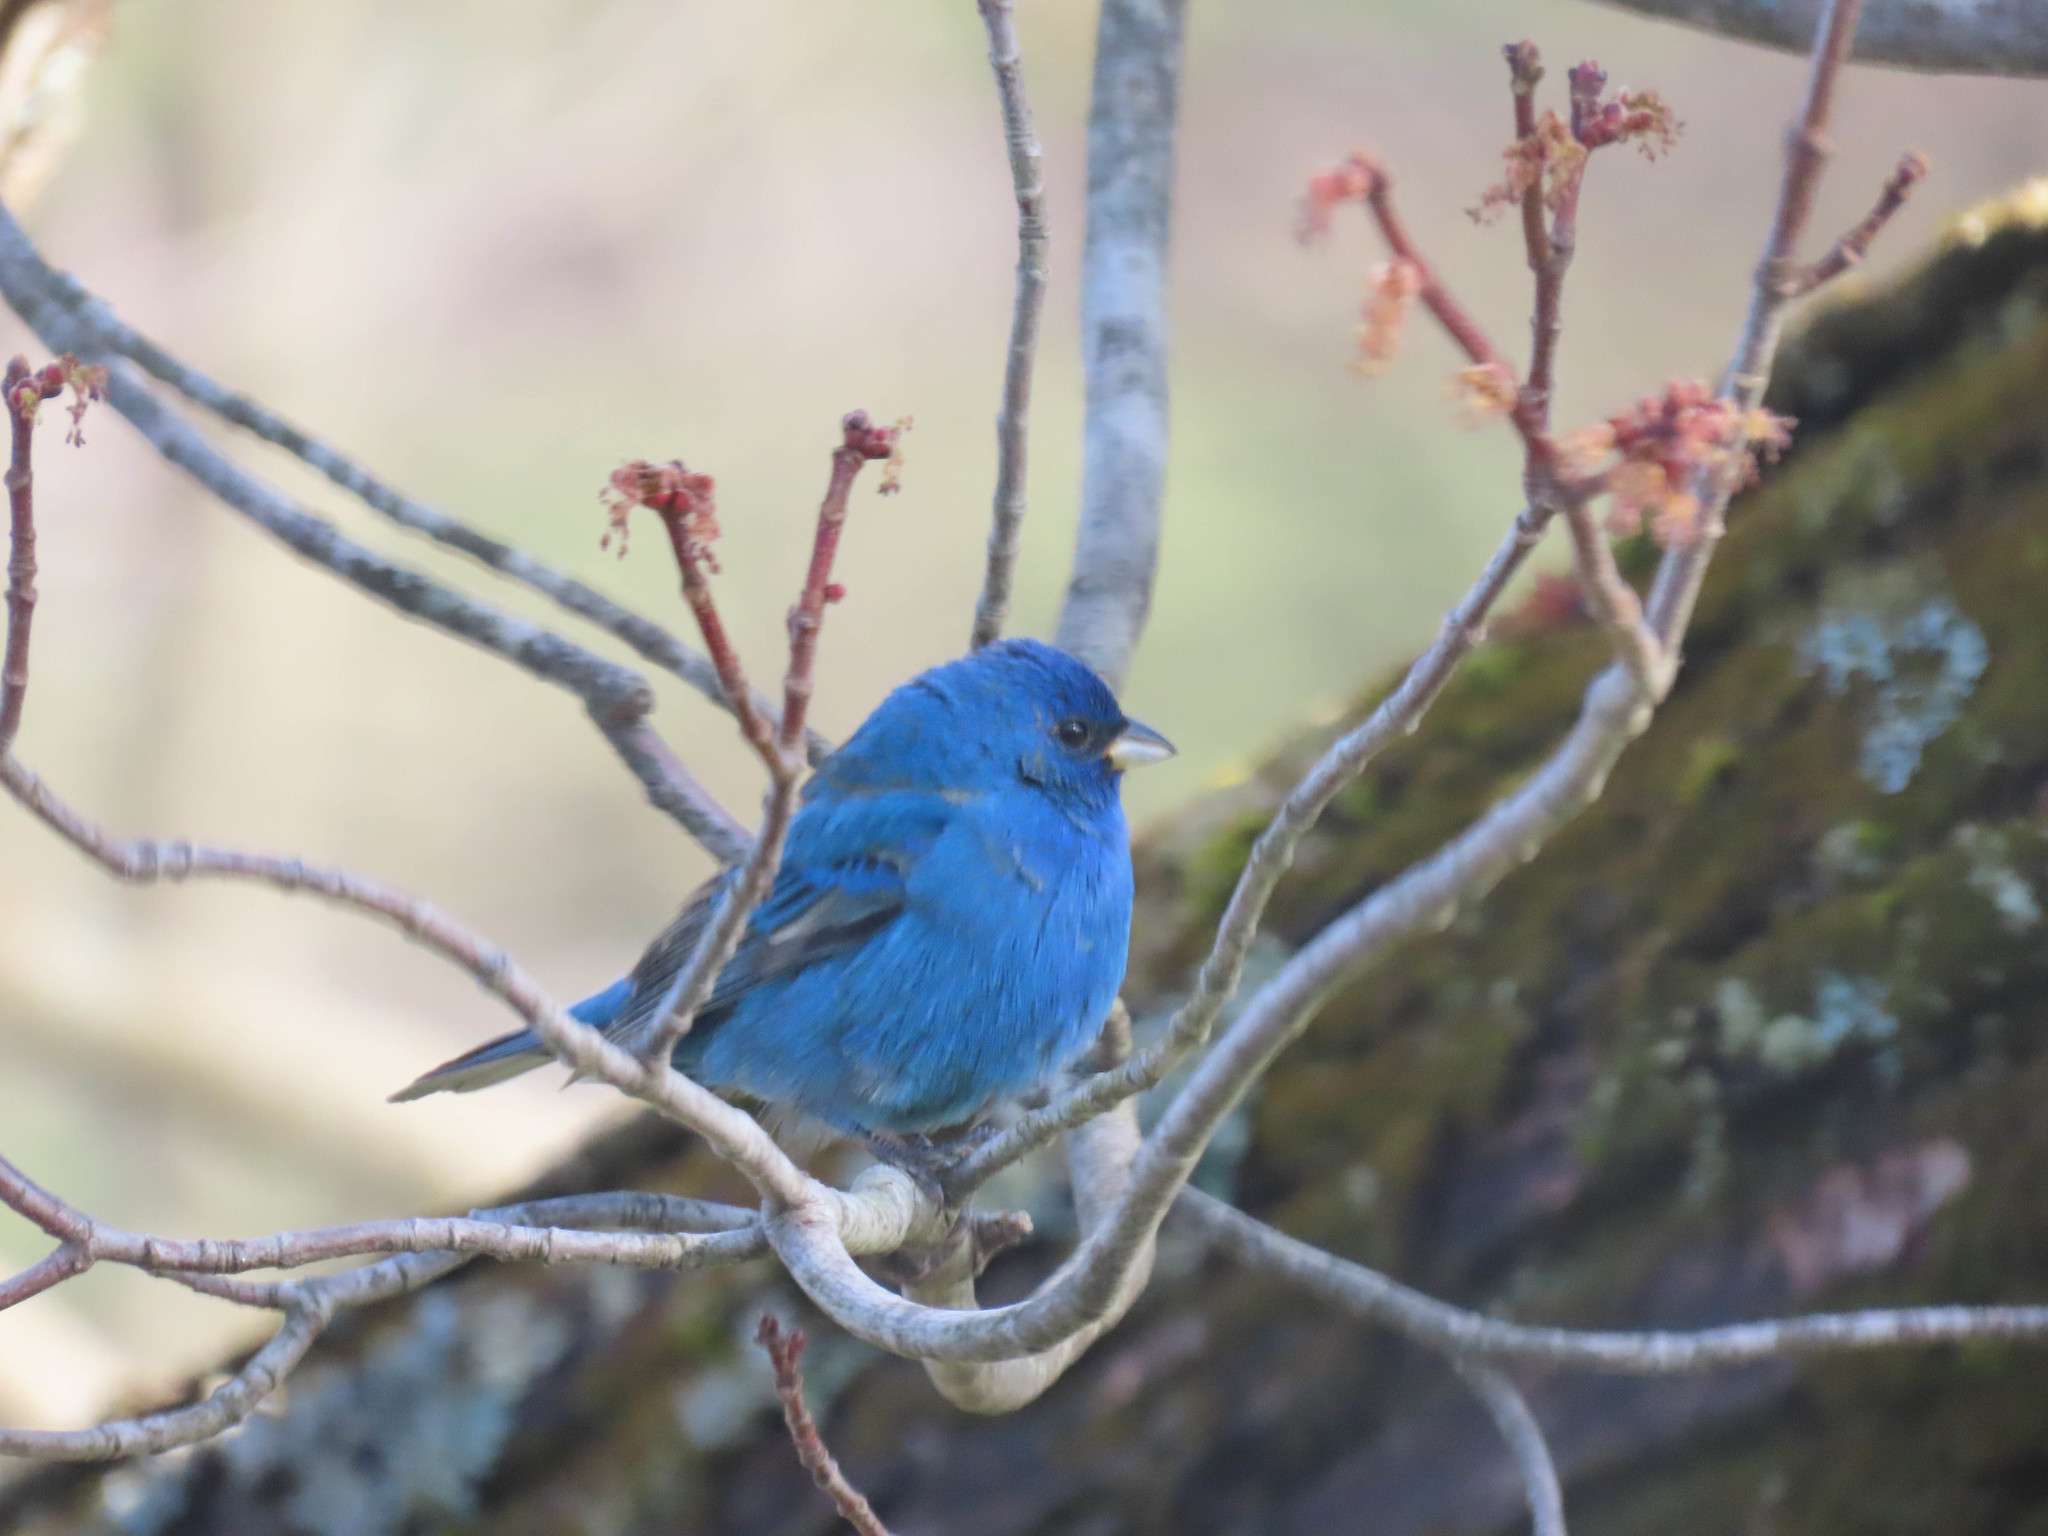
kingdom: Animalia
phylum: Chordata
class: Aves
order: Passeriformes
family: Cardinalidae
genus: Passerina
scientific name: Passerina cyanea
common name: Indigo bunting
